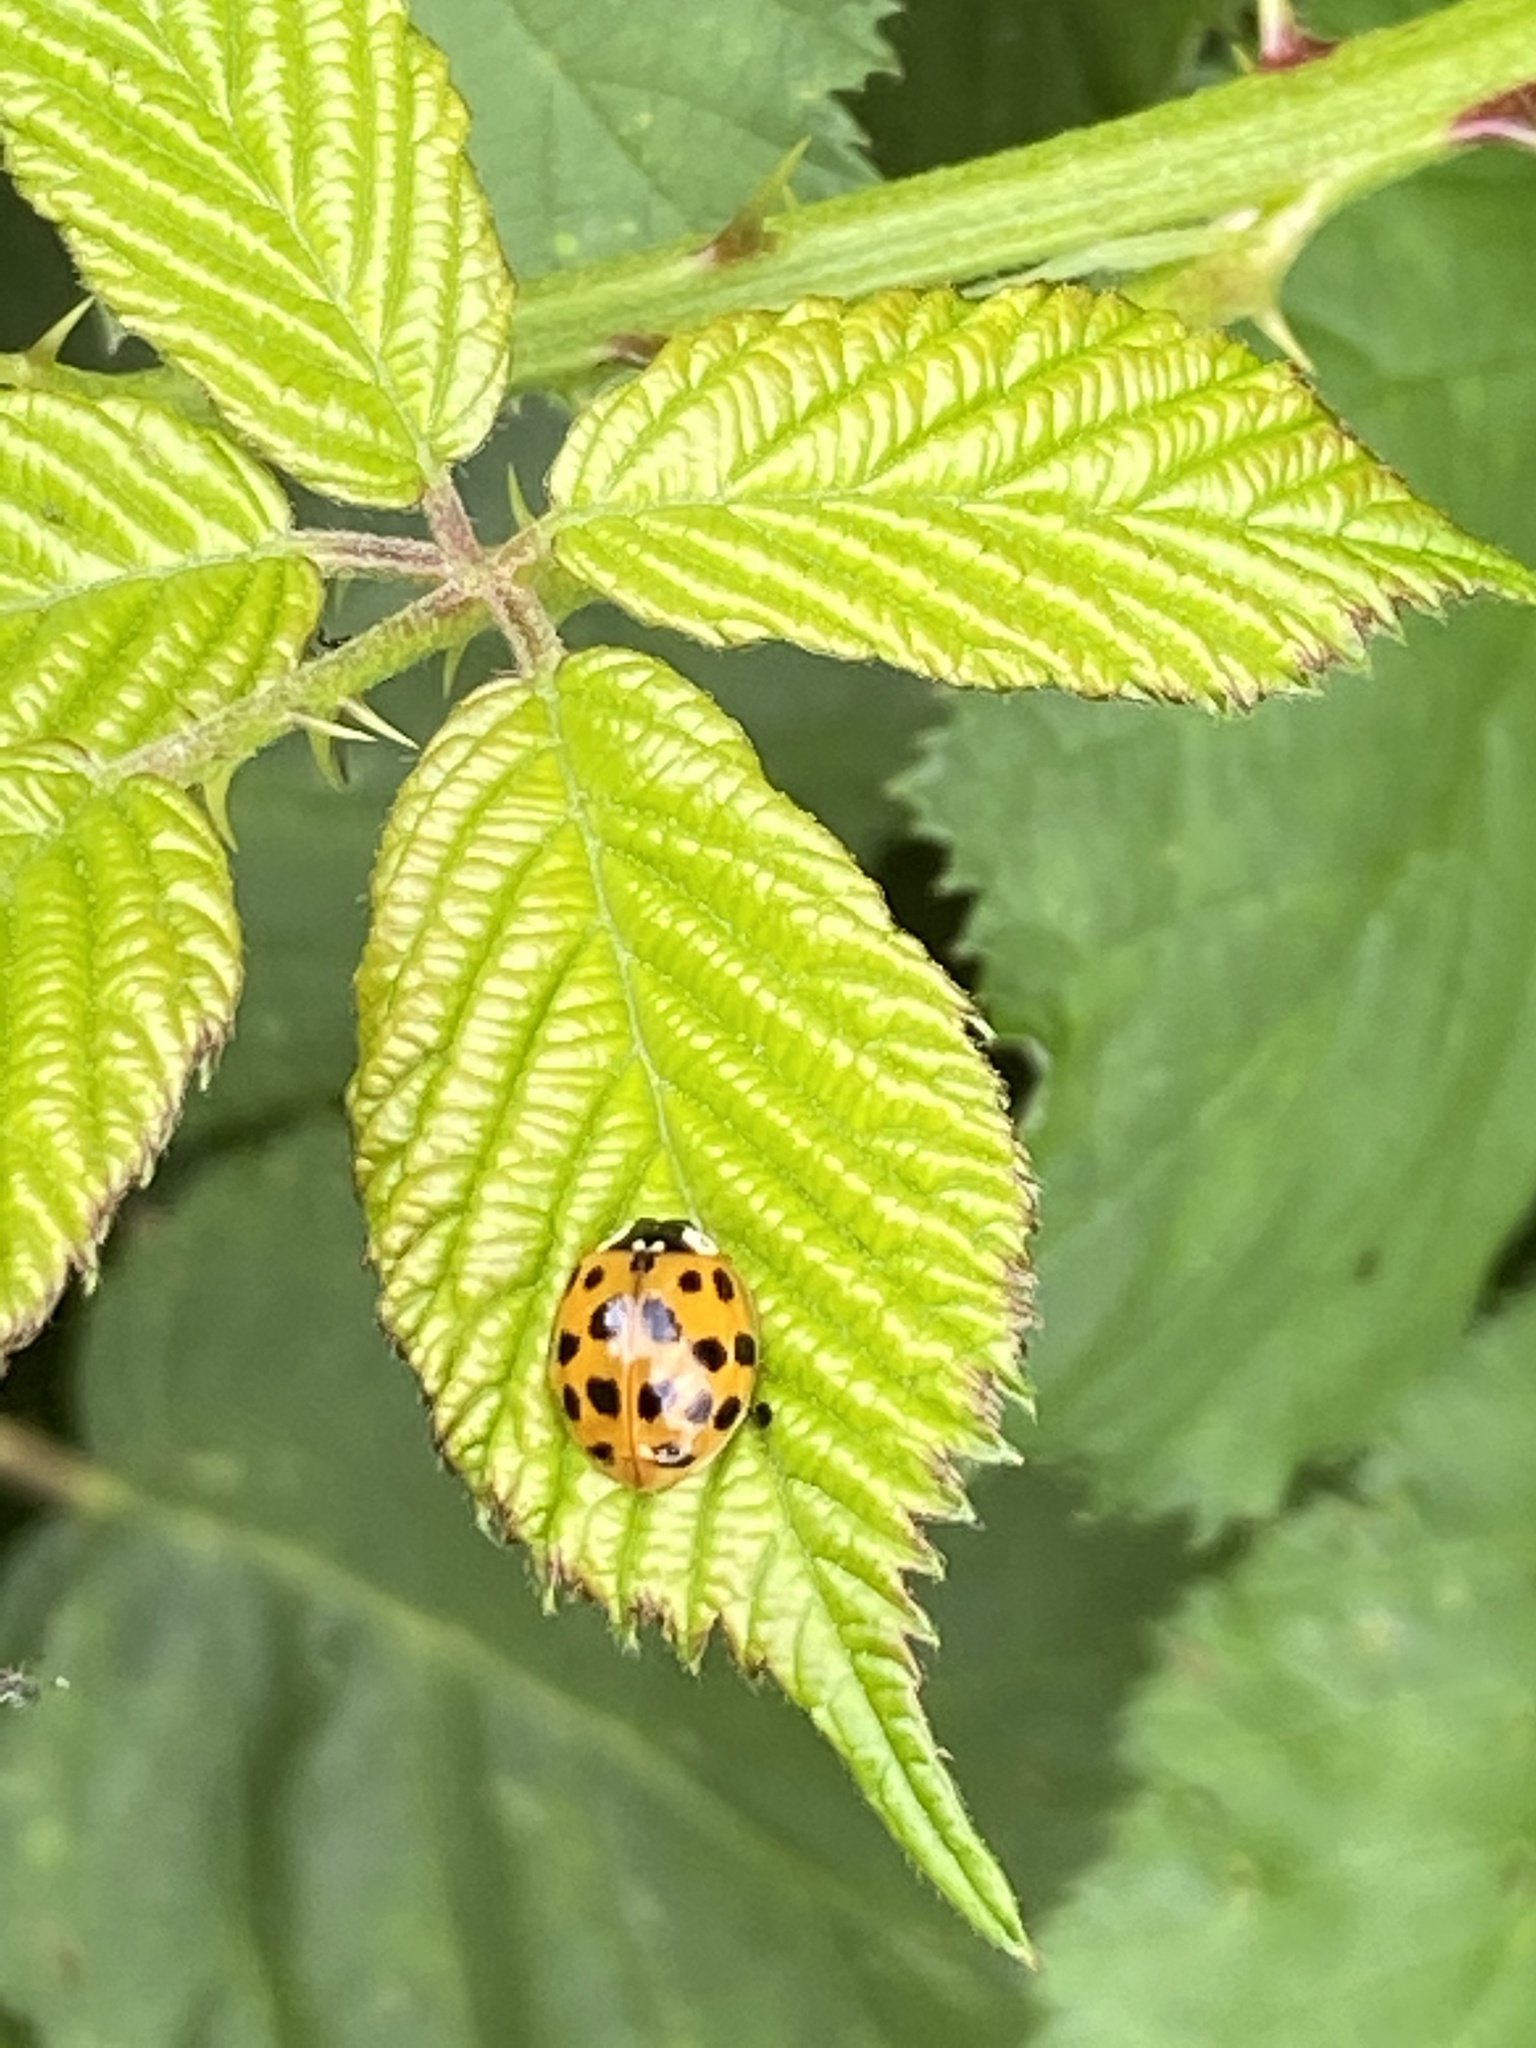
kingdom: Animalia
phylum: Arthropoda
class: Insecta
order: Coleoptera
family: Coccinellidae
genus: Harmonia
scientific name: Harmonia axyridis
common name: Harlequin ladybird
